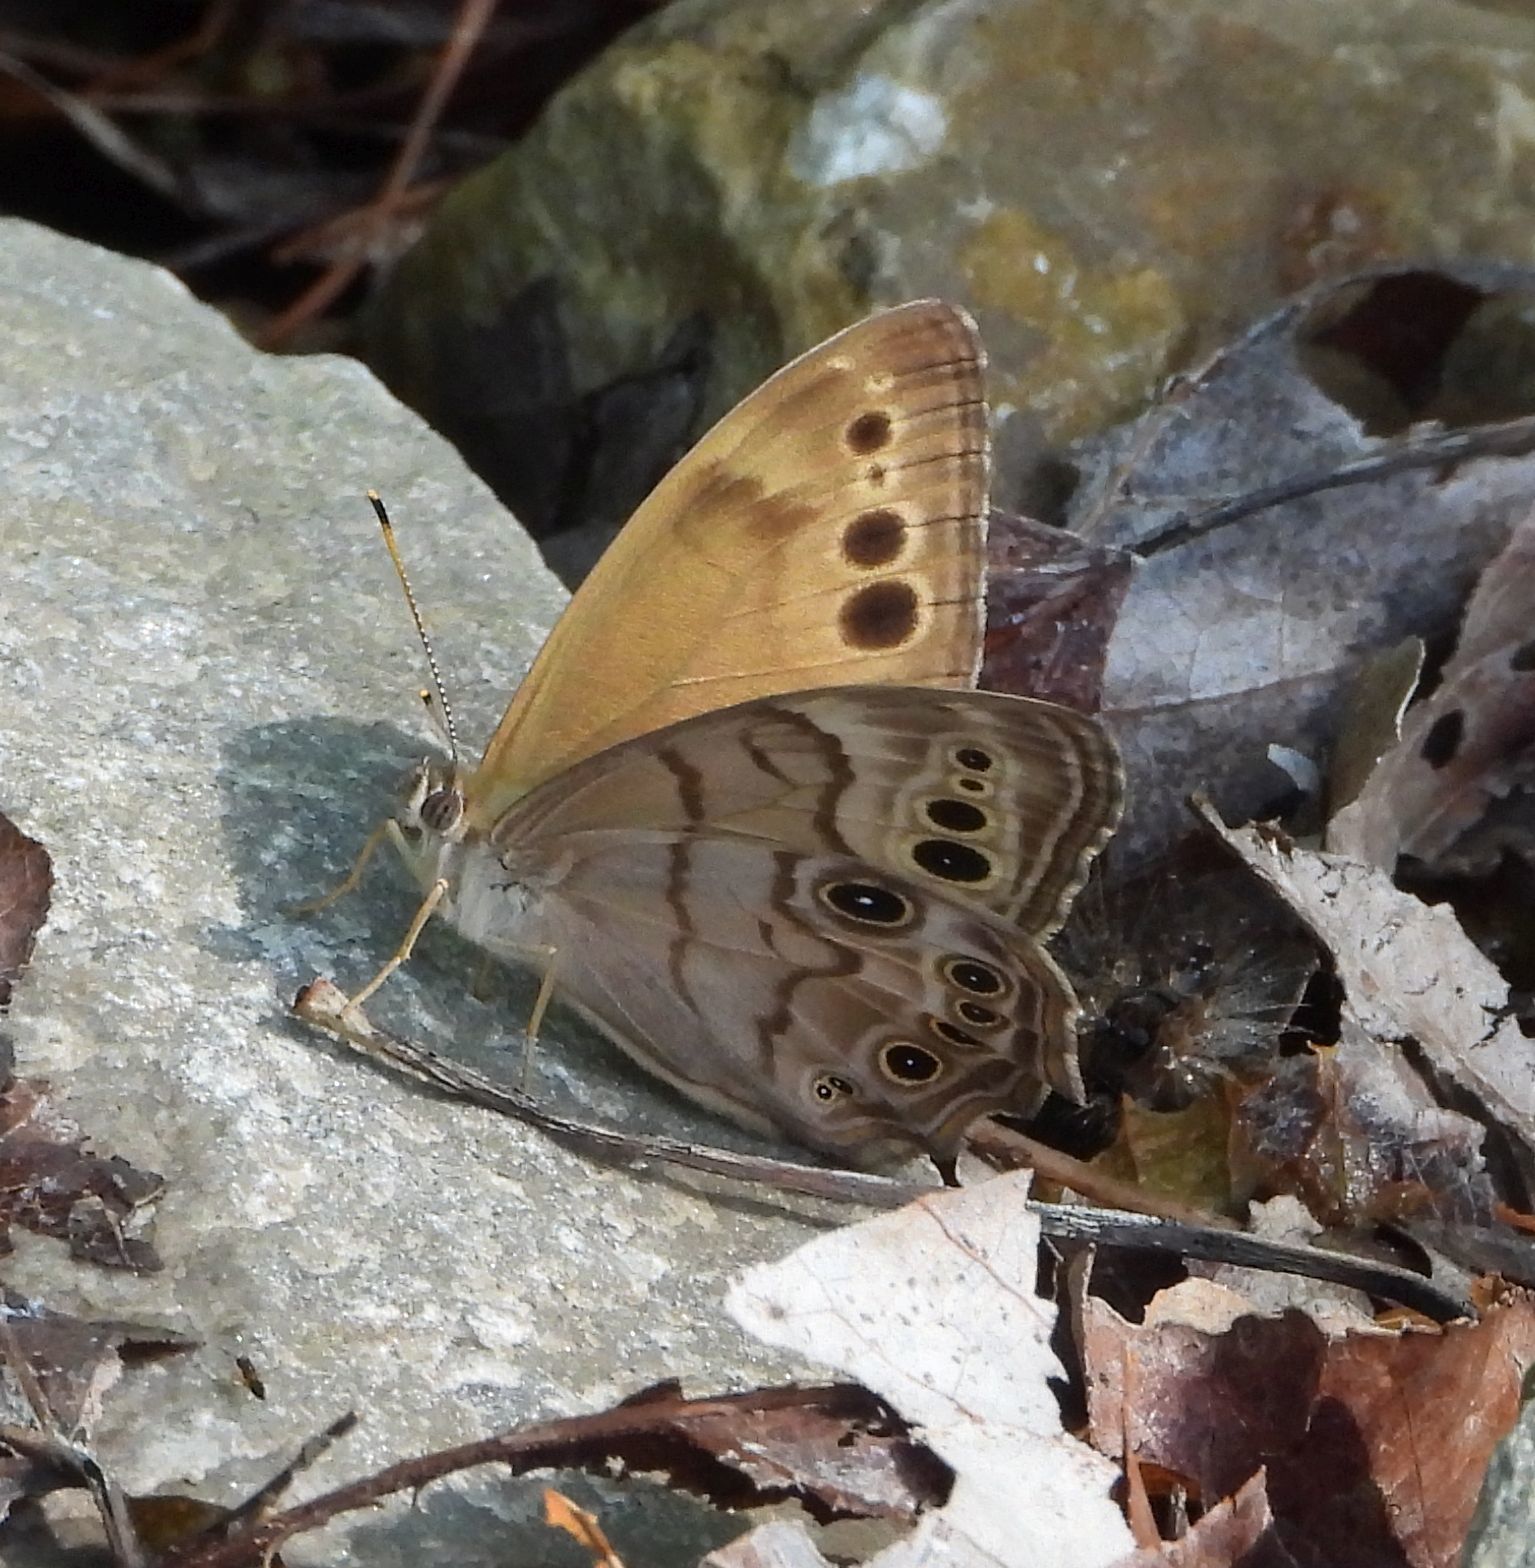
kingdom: Animalia
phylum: Arthropoda
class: Insecta
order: Lepidoptera
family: Nymphalidae
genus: Lethe
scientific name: Lethe anthedon
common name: Northern pearly-eye
